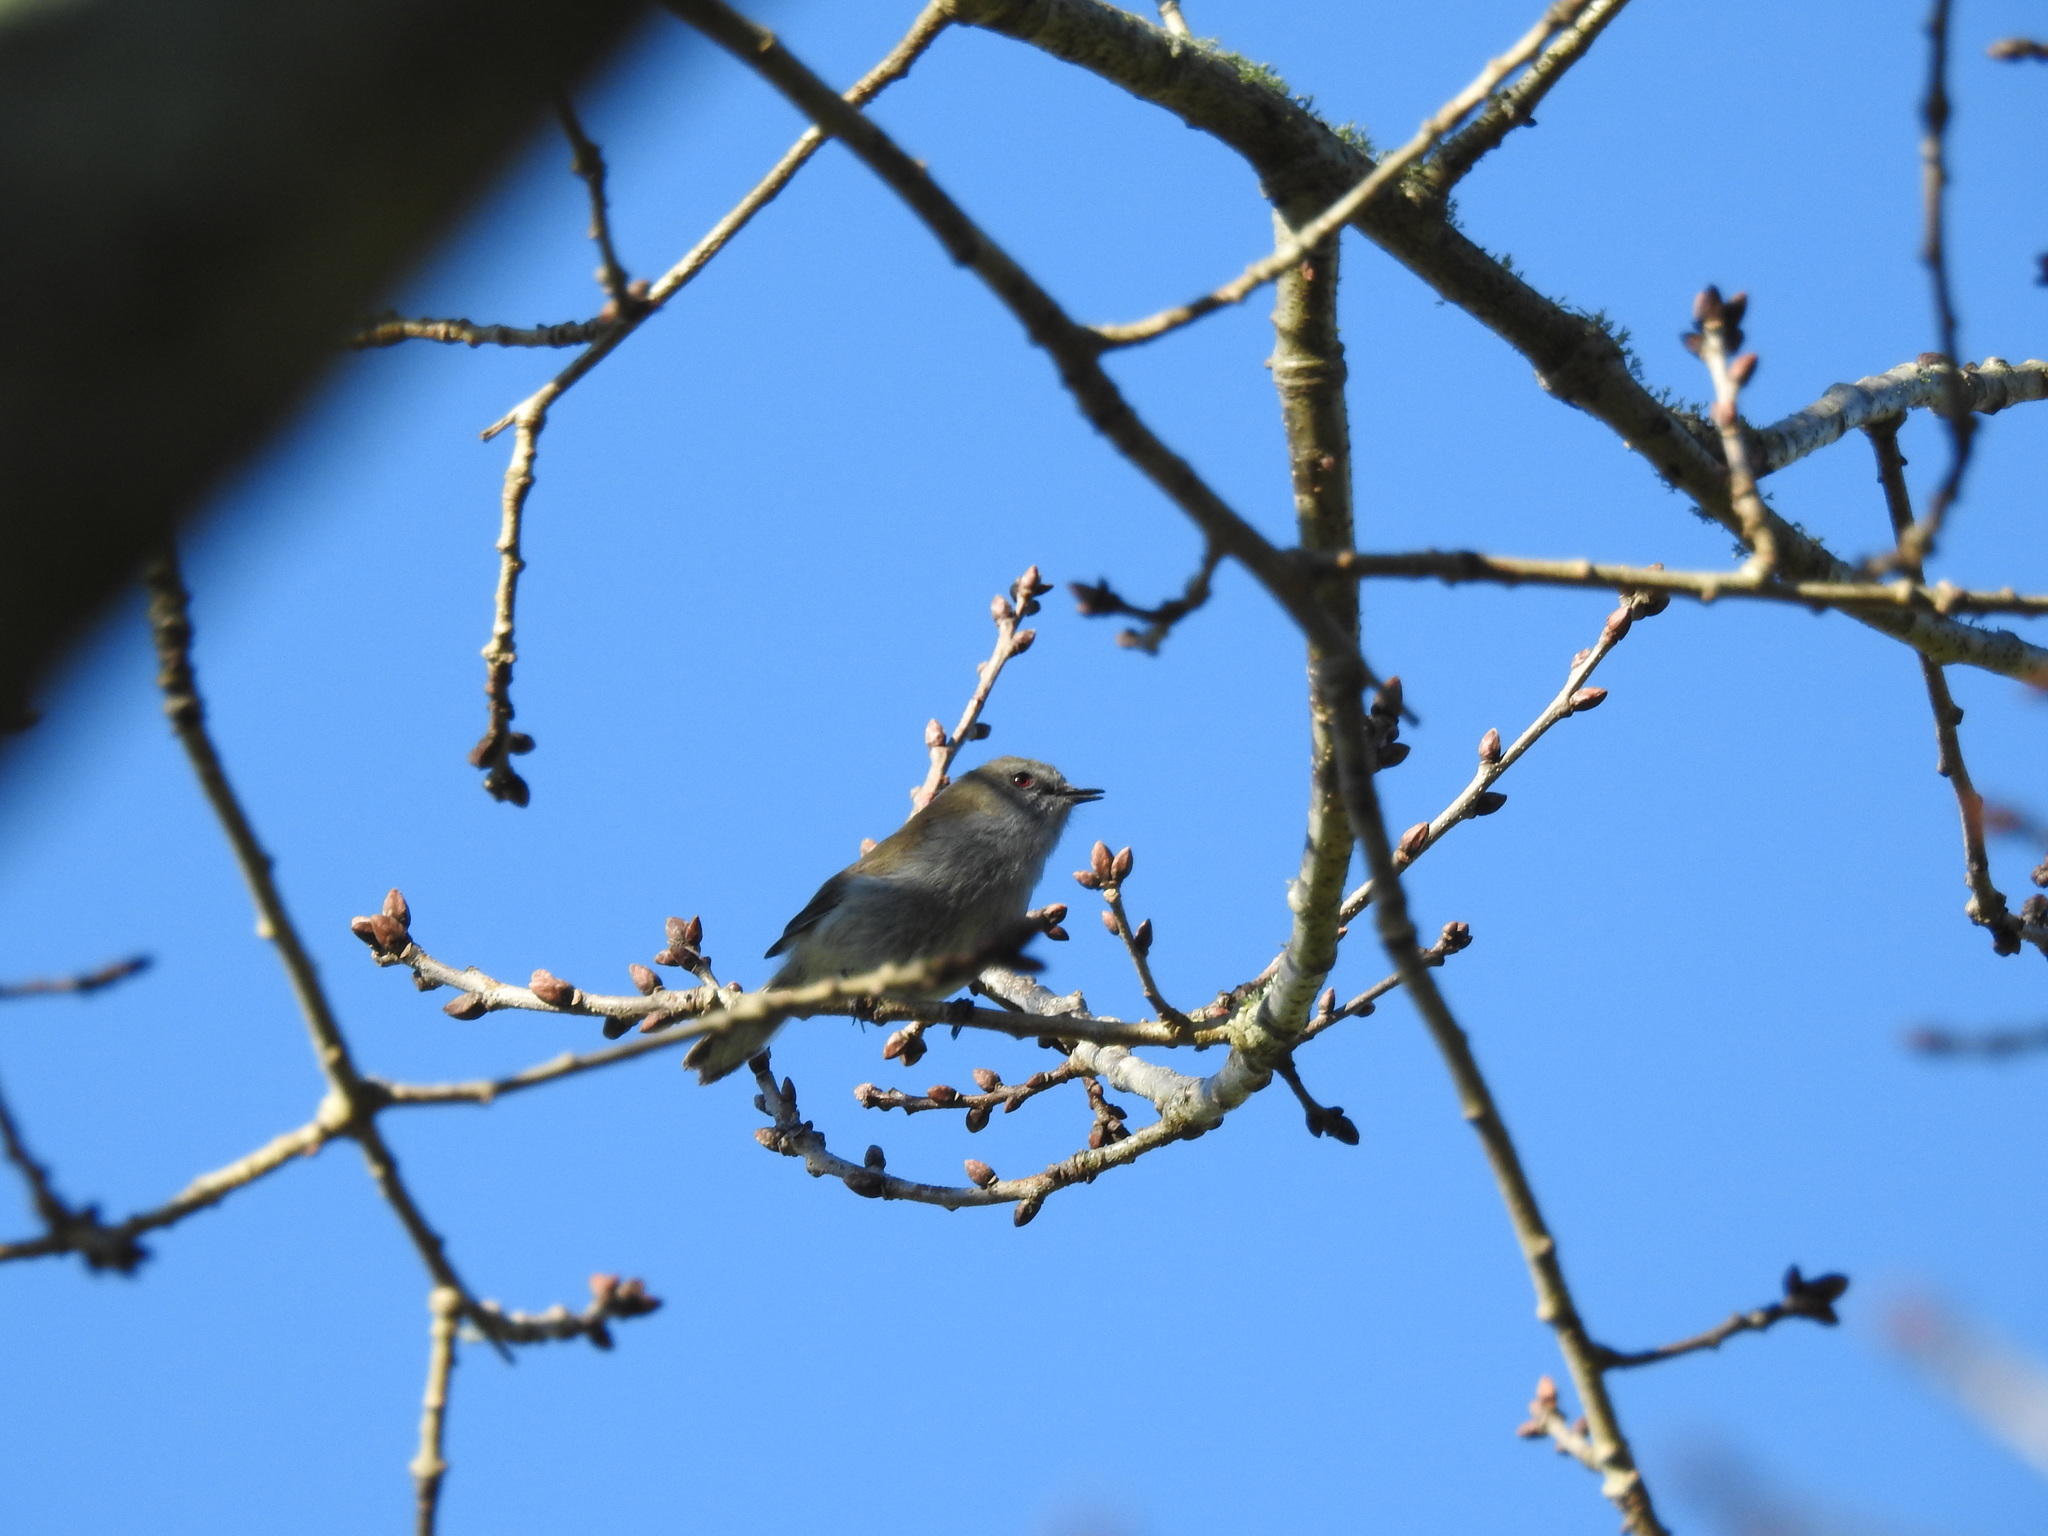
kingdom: Animalia
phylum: Chordata
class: Aves
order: Passeriformes
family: Acanthizidae
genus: Gerygone
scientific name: Gerygone igata
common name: Grey gerygone
